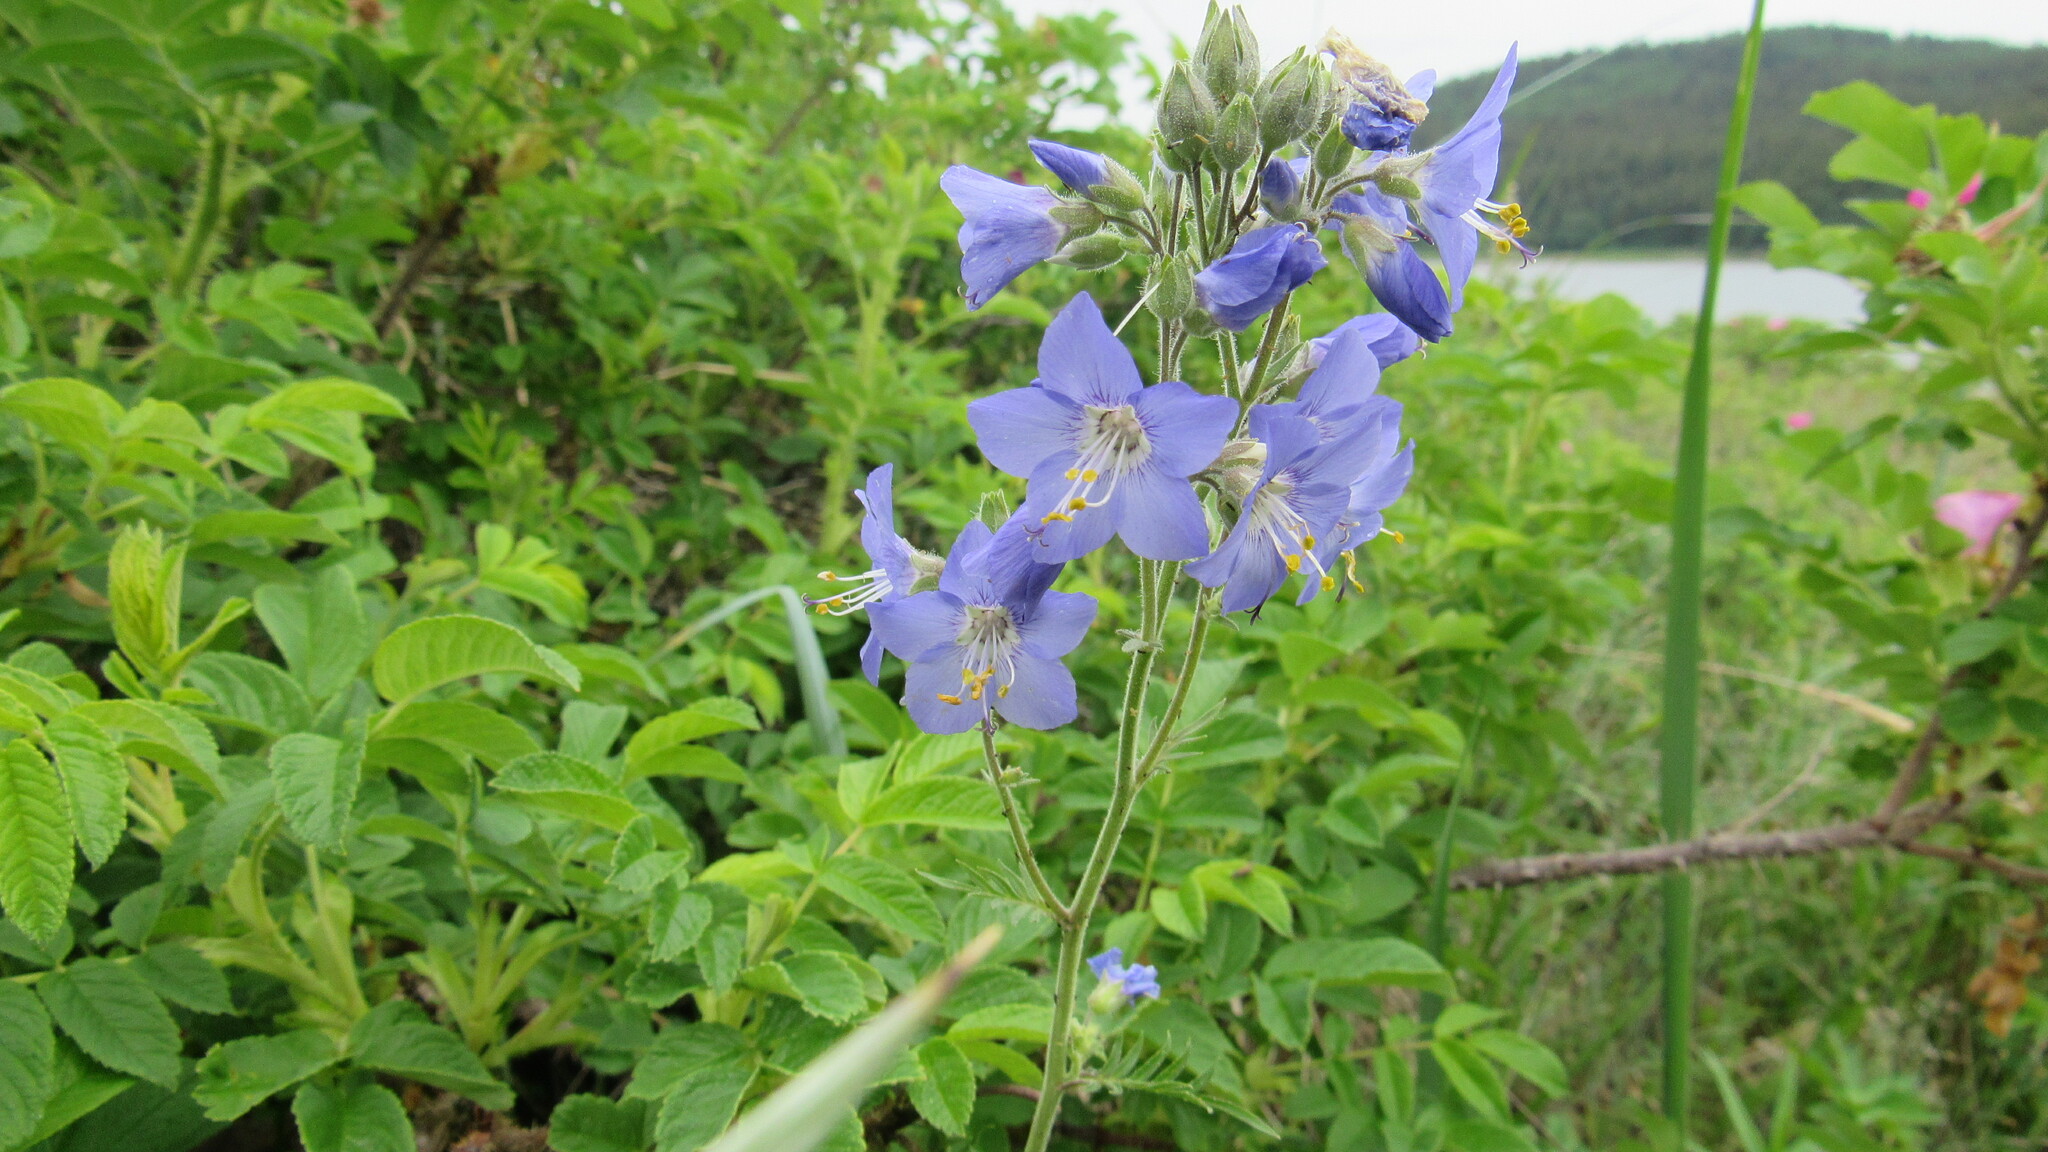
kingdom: Plantae
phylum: Tracheophyta
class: Magnoliopsida
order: Ericales
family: Polemoniaceae
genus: Polemonium
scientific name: Polemonium acutiflorum
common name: Tall jacob's-ladder
